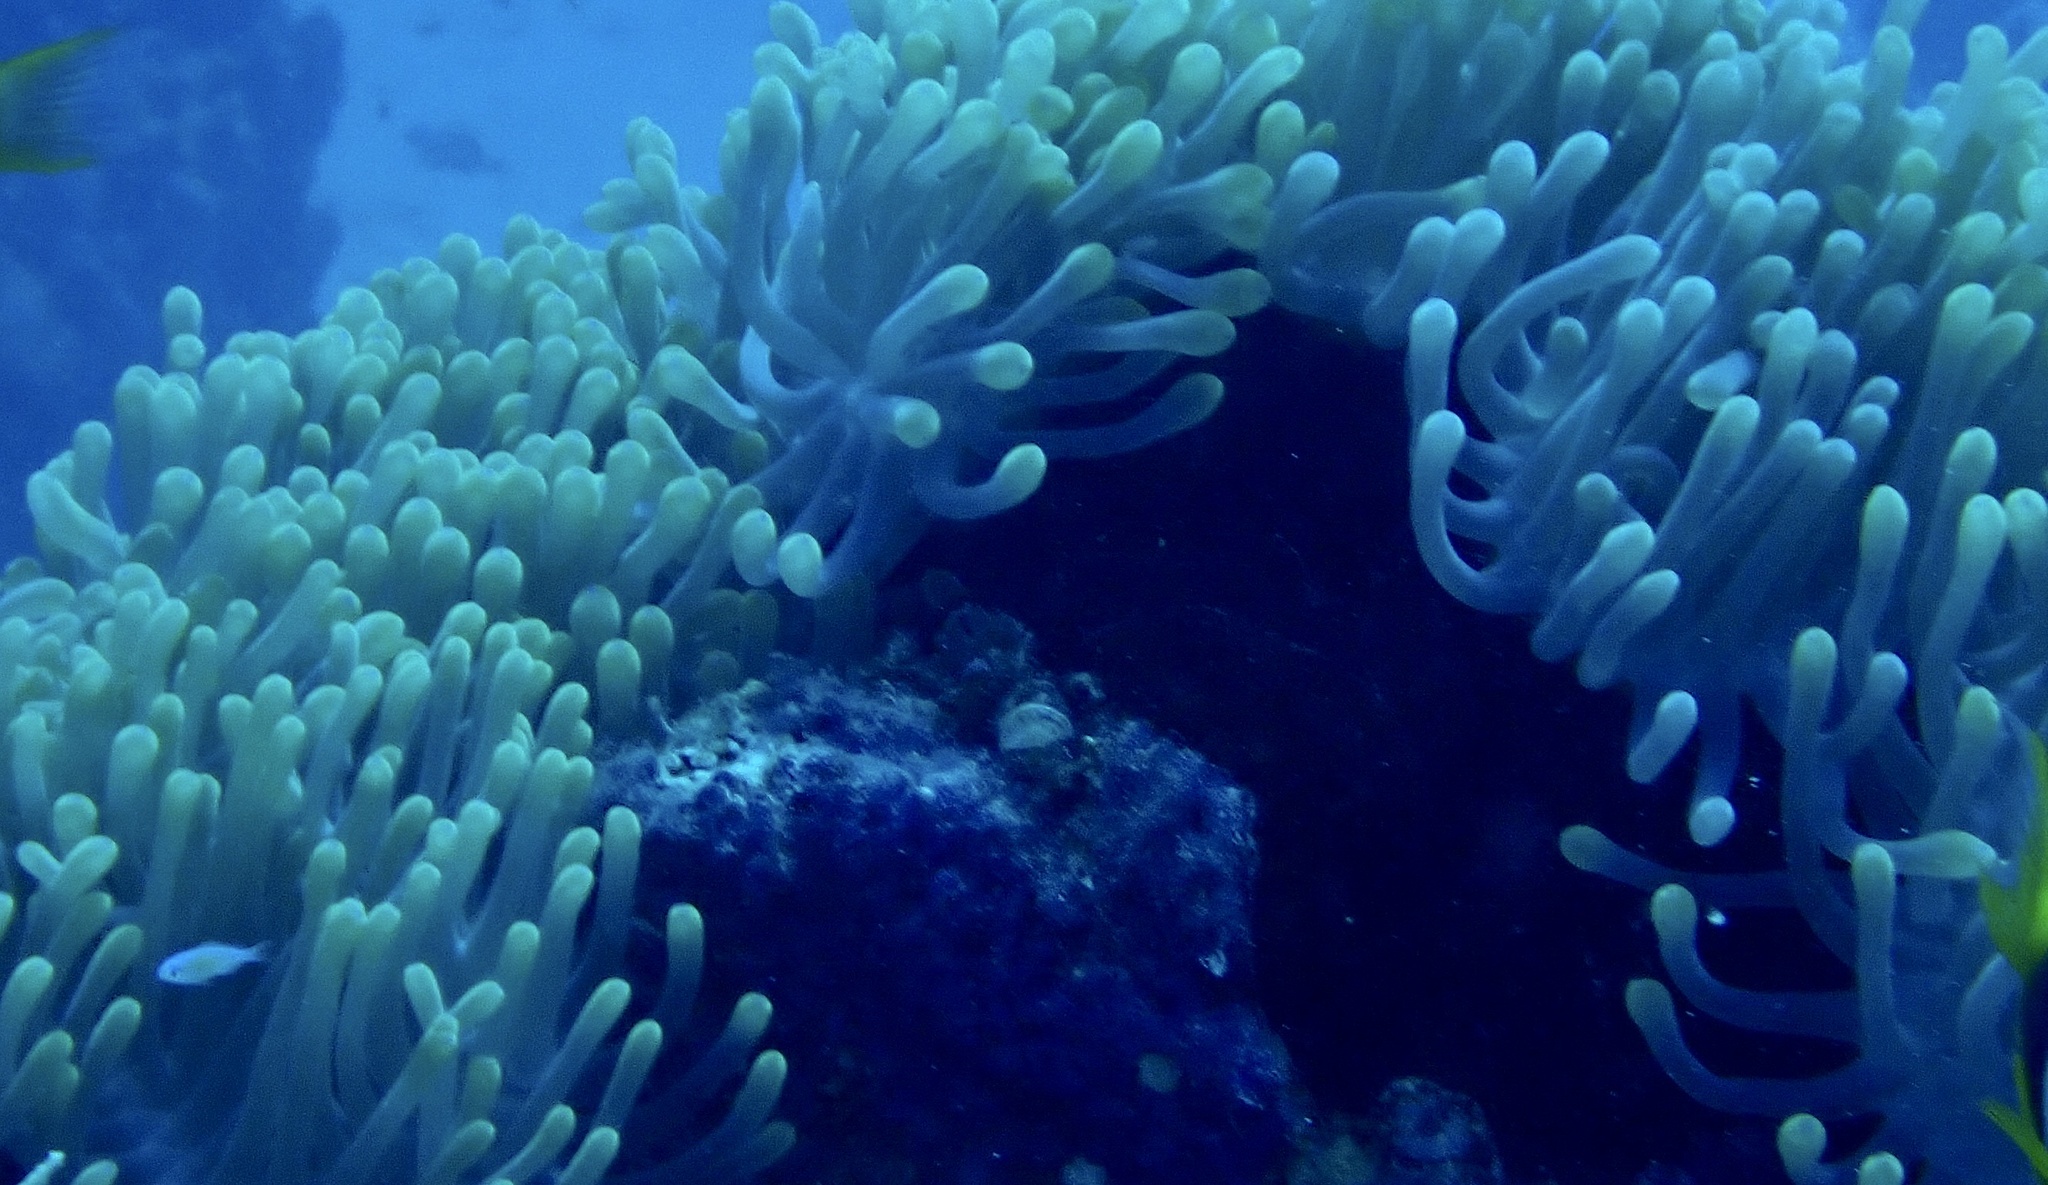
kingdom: Animalia
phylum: Cnidaria
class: Anthozoa
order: Actiniaria
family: Stichodactylidae
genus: Radianthus
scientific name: Radianthus magnifica
